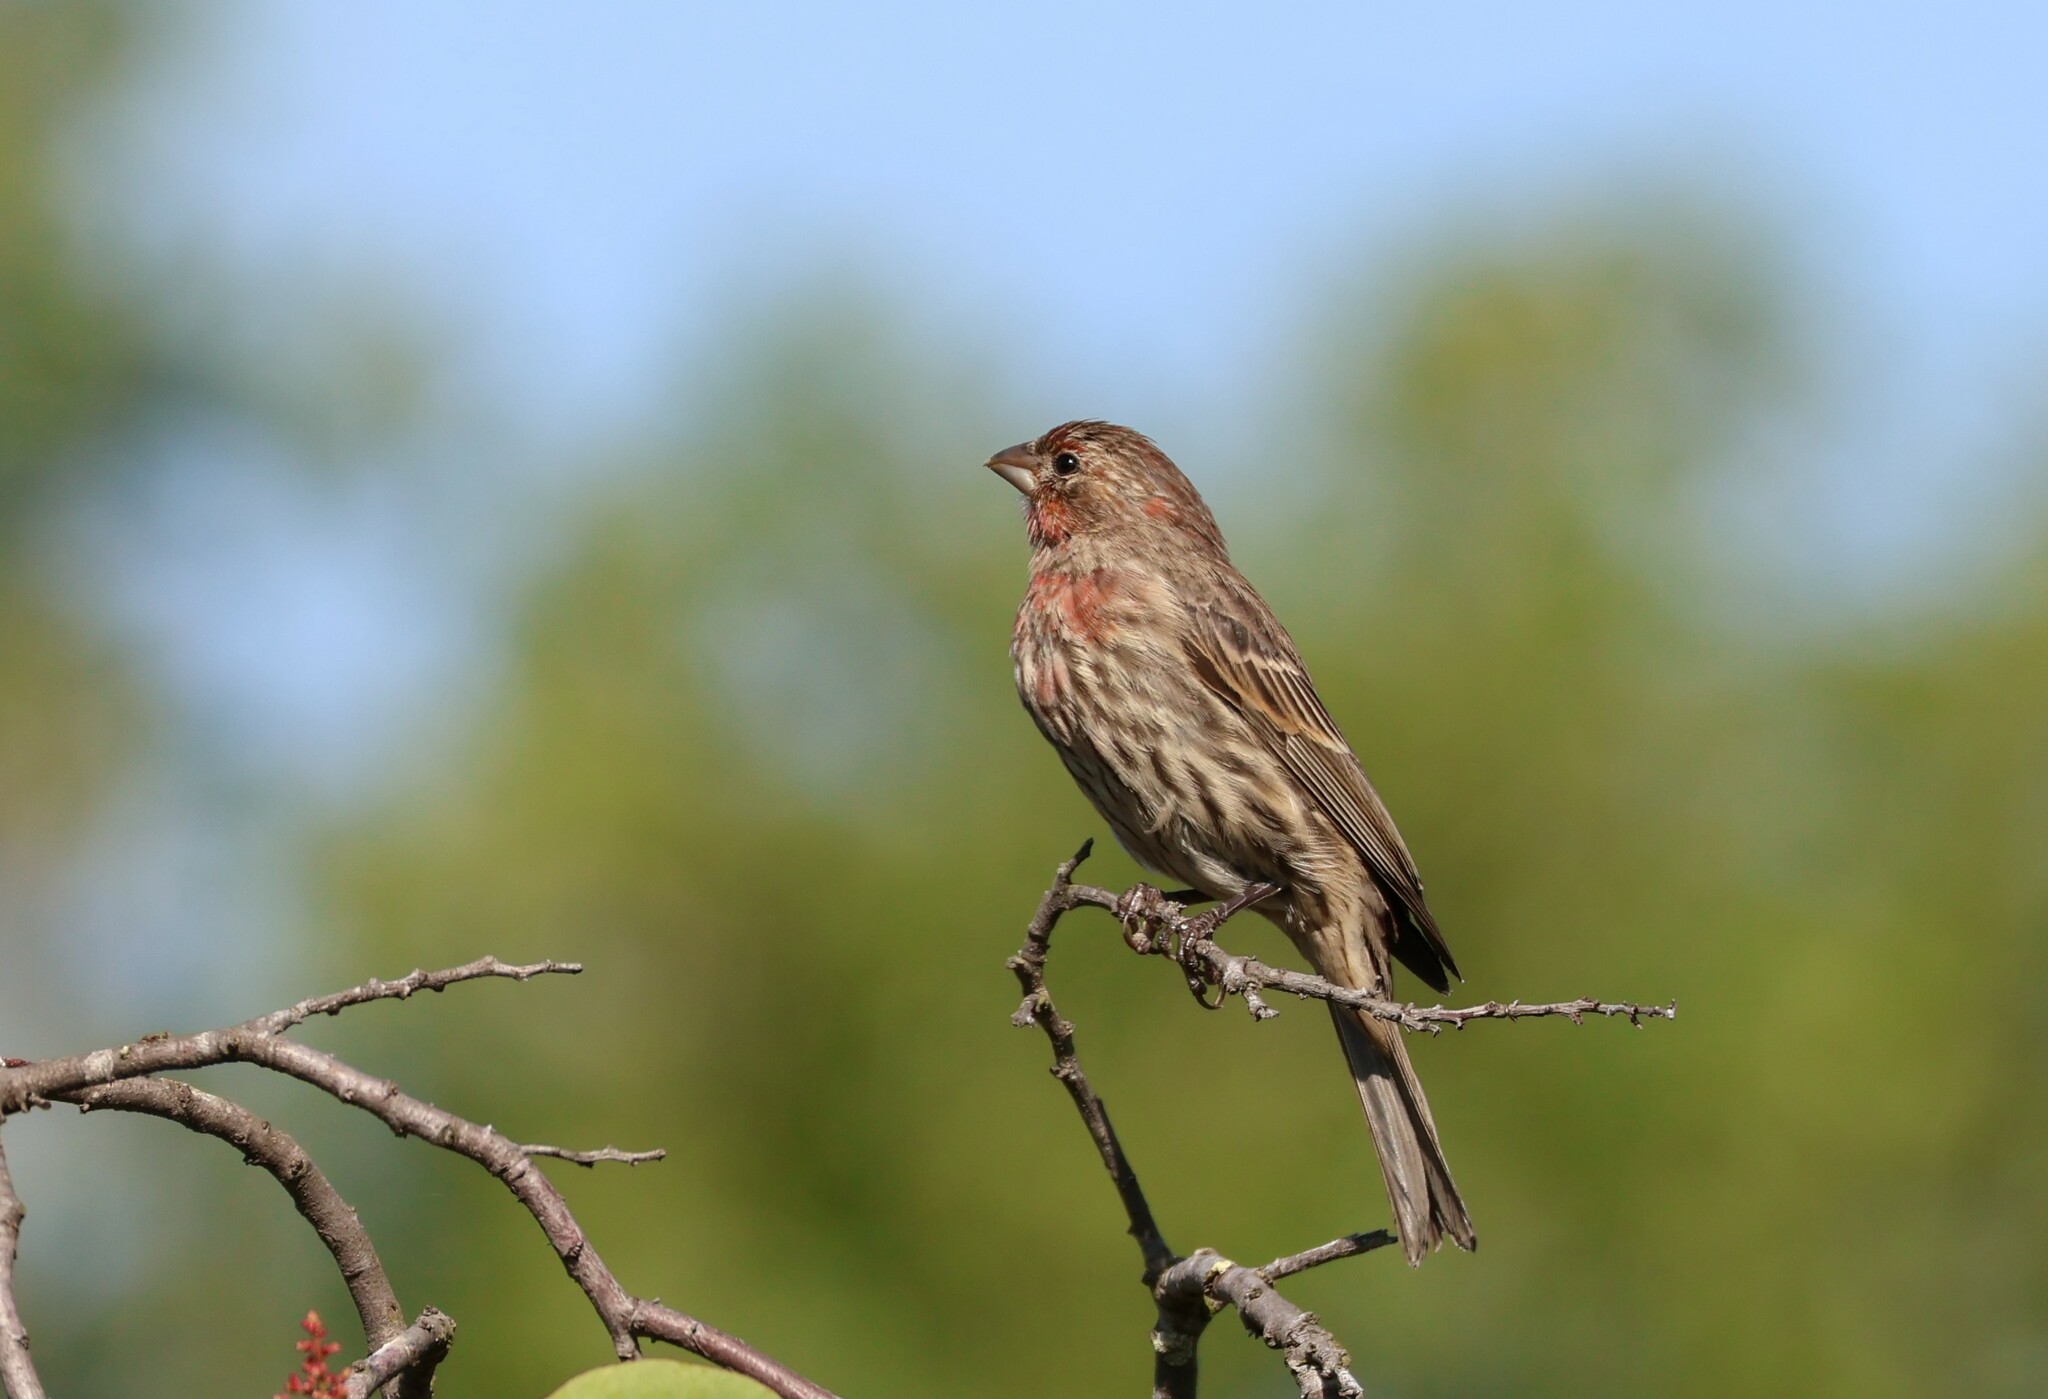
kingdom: Animalia
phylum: Chordata
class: Aves
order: Passeriformes
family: Fringillidae
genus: Haemorhous
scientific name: Haemorhous mexicanus
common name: House finch
